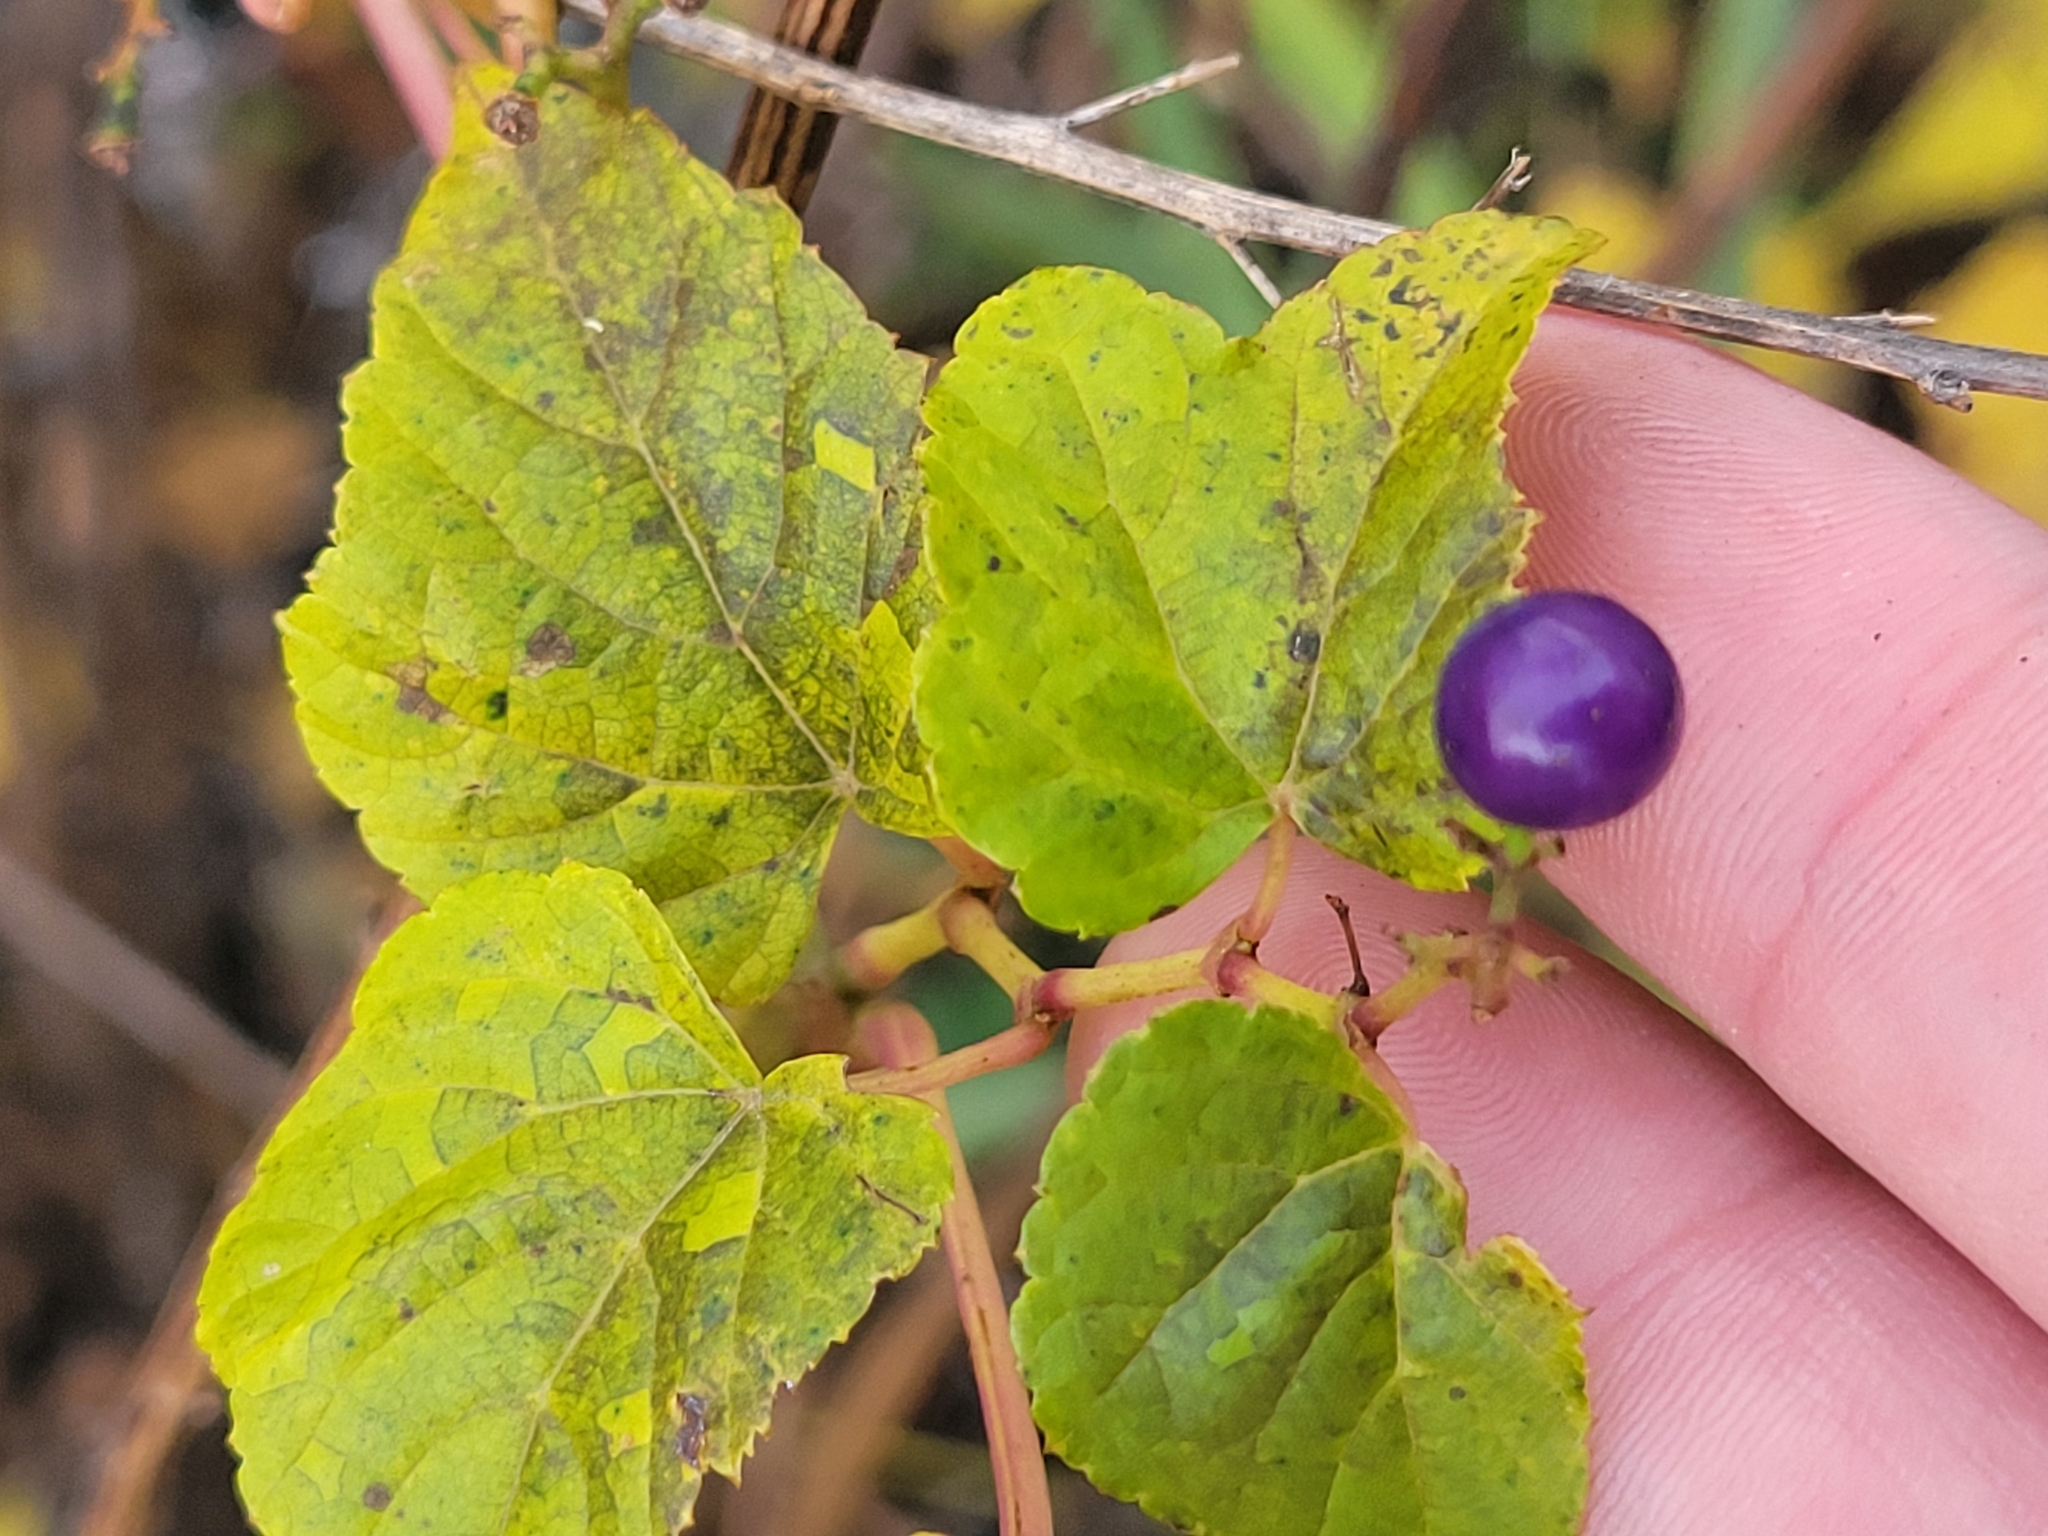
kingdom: Plantae
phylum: Tracheophyta
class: Magnoliopsida
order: Vitales
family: Vitaceae
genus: Ampelopsis
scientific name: Ampelopsis glandulosa
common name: Amur peppervine
